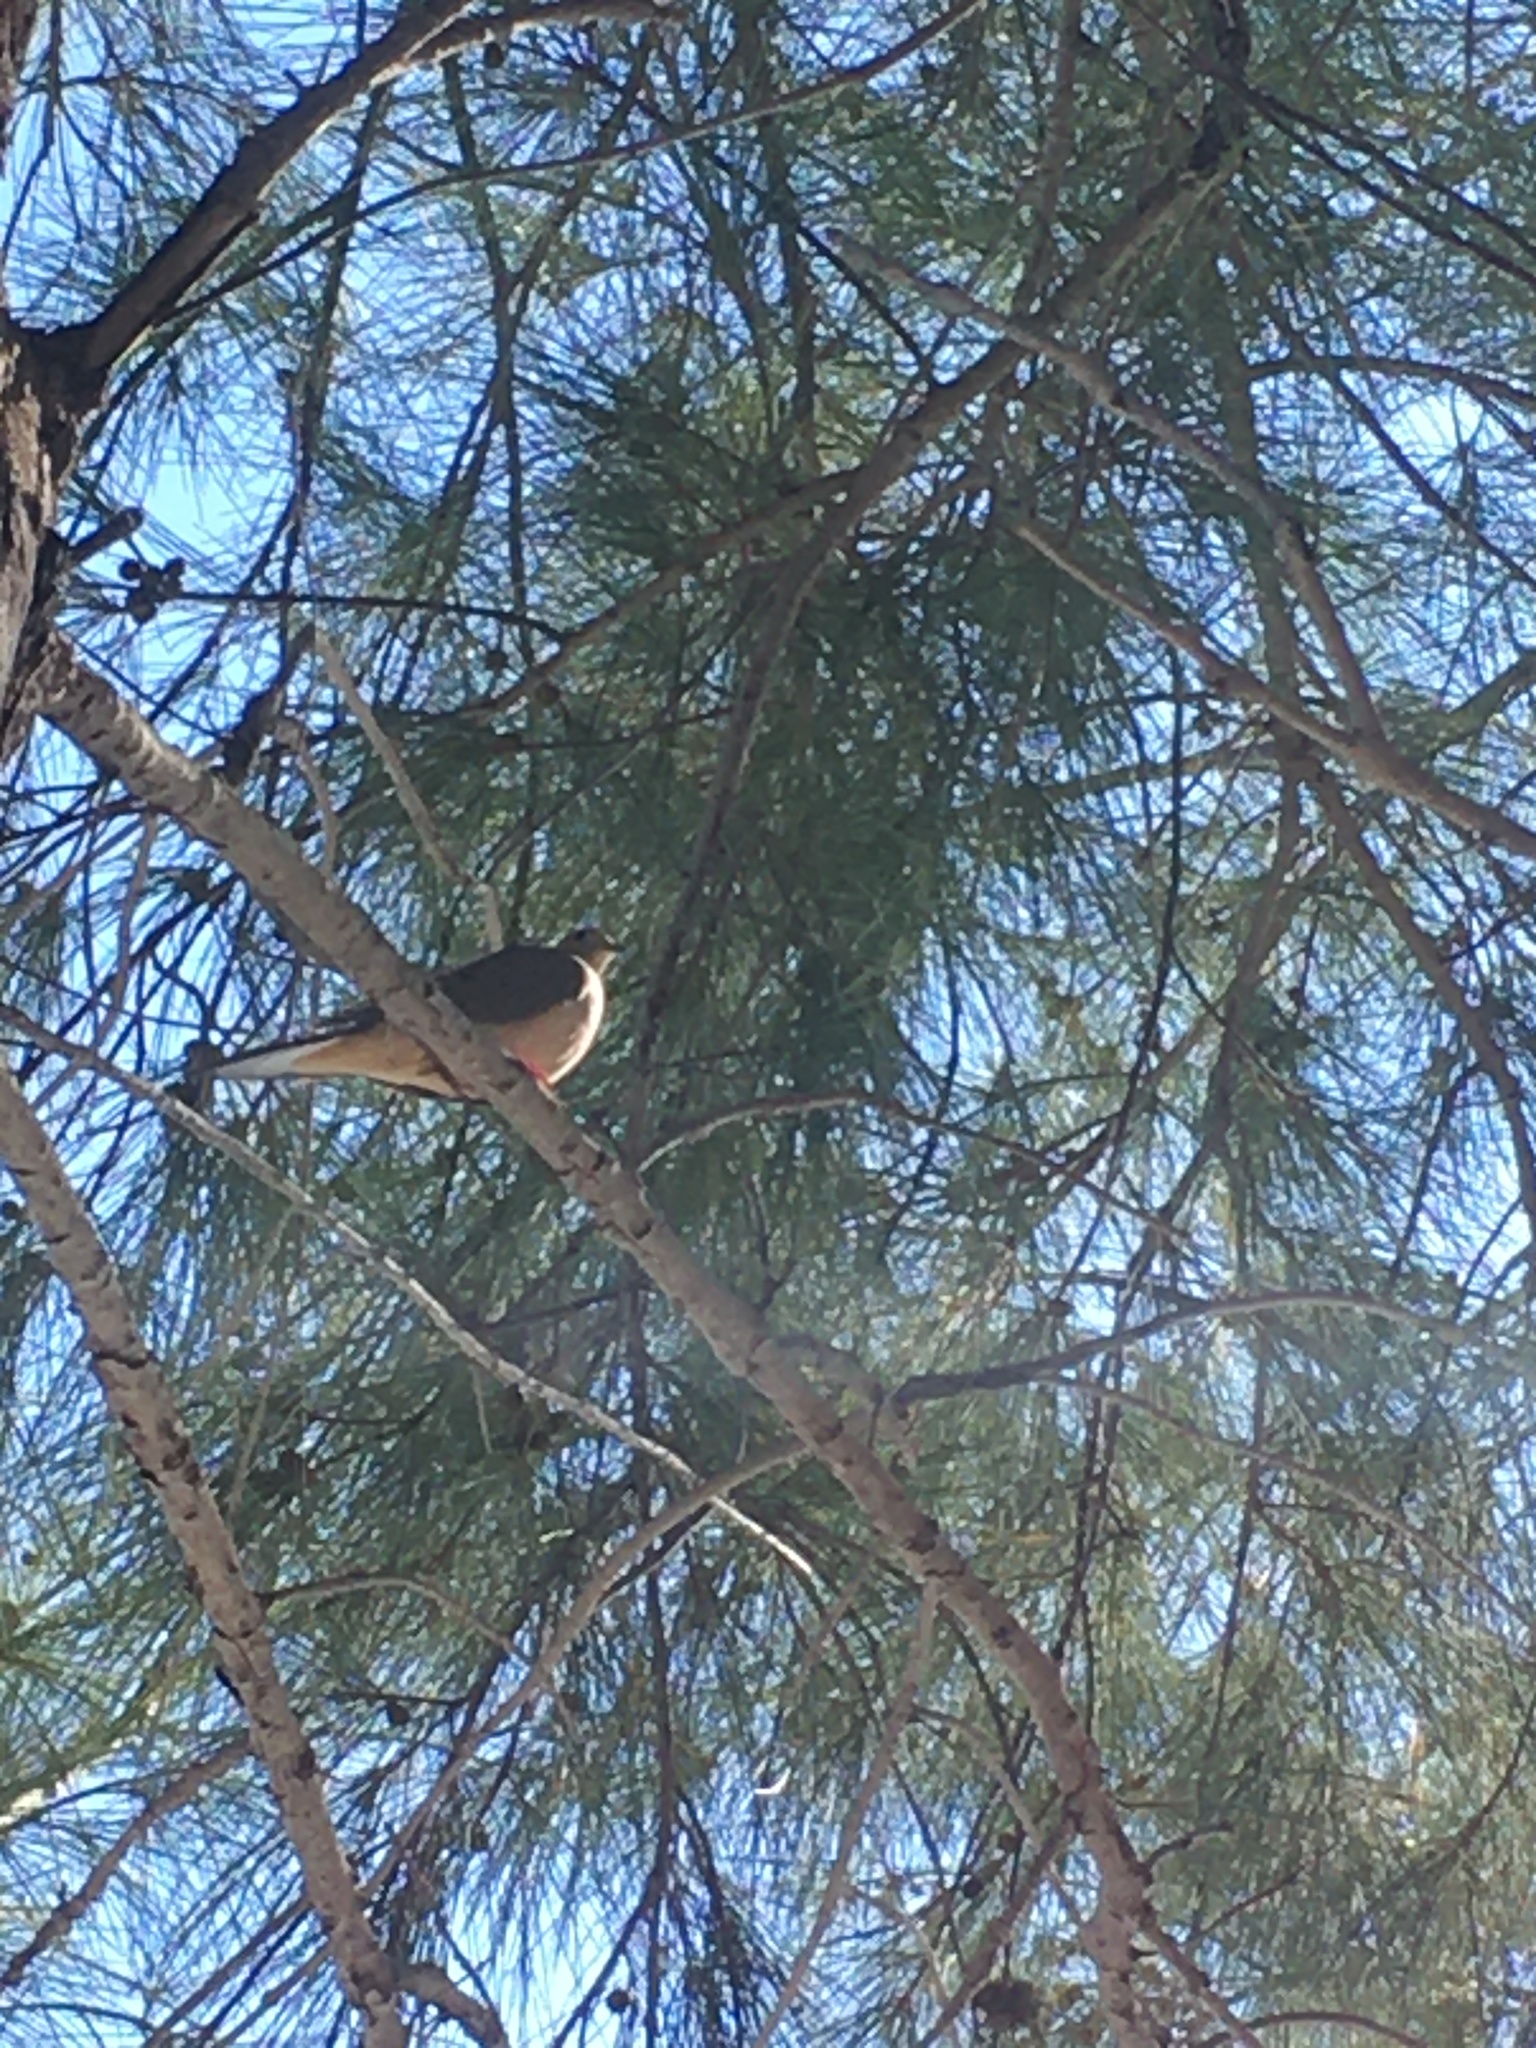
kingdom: Animalia
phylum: Chordata
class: Aves
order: Columbiformes
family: Columbidae
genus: Zenaida
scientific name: Zenaida macroura
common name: Mourning dove
